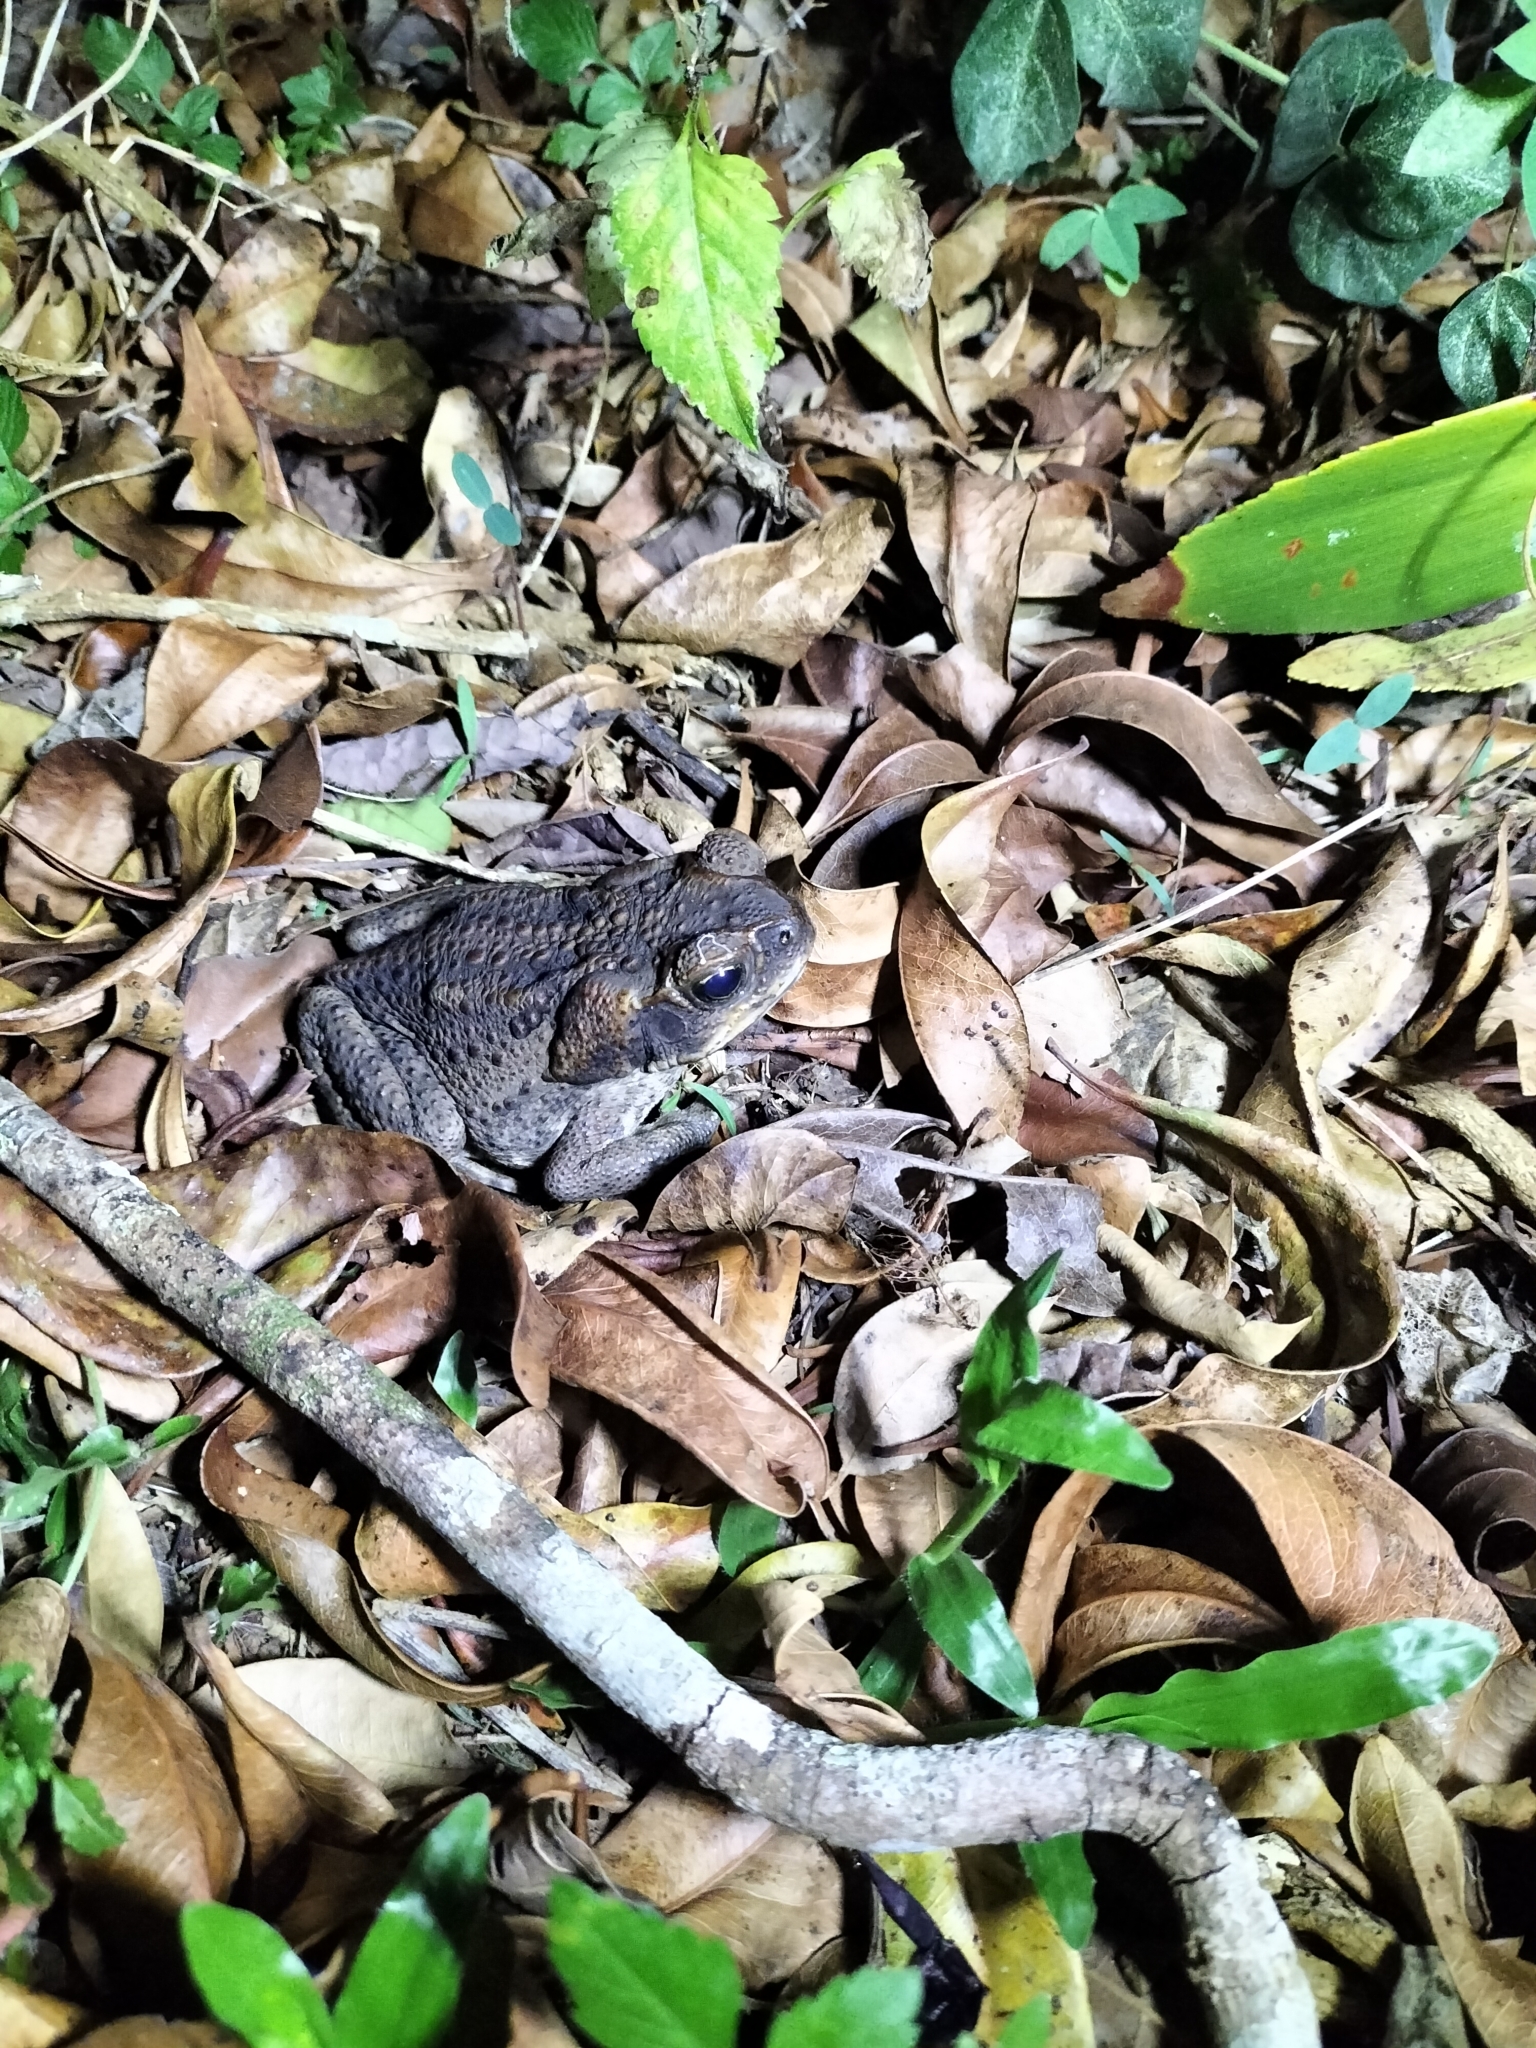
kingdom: Animalia
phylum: Chordata
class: Amphibia
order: Anura
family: Bufonidae
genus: Rhinella
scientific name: Rhinella marina
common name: Cane toad
